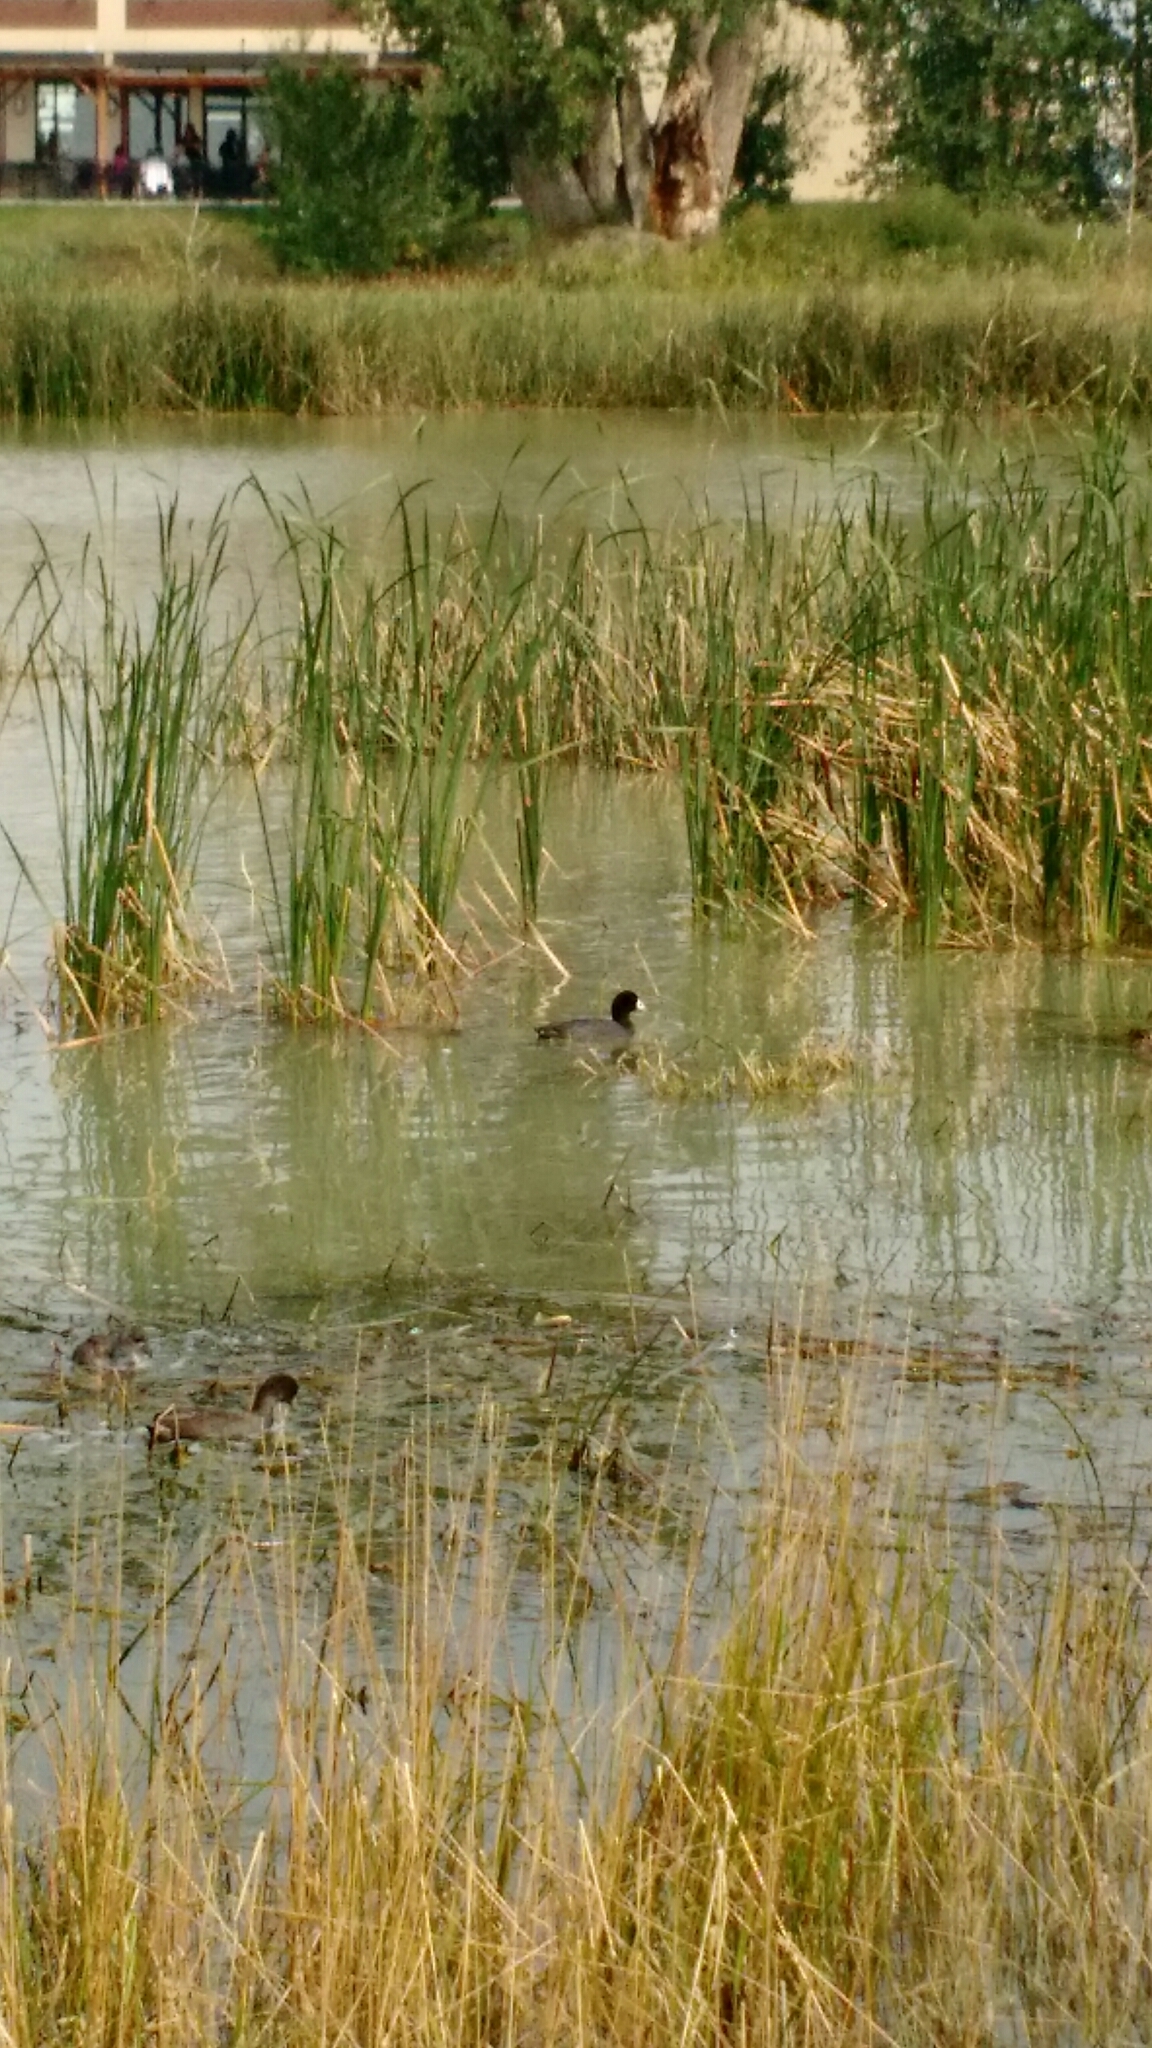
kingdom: Animalia
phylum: Chordata
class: Aves
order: Gruiformes
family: Rallidae
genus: Fulica
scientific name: Fulica americana
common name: American coot
